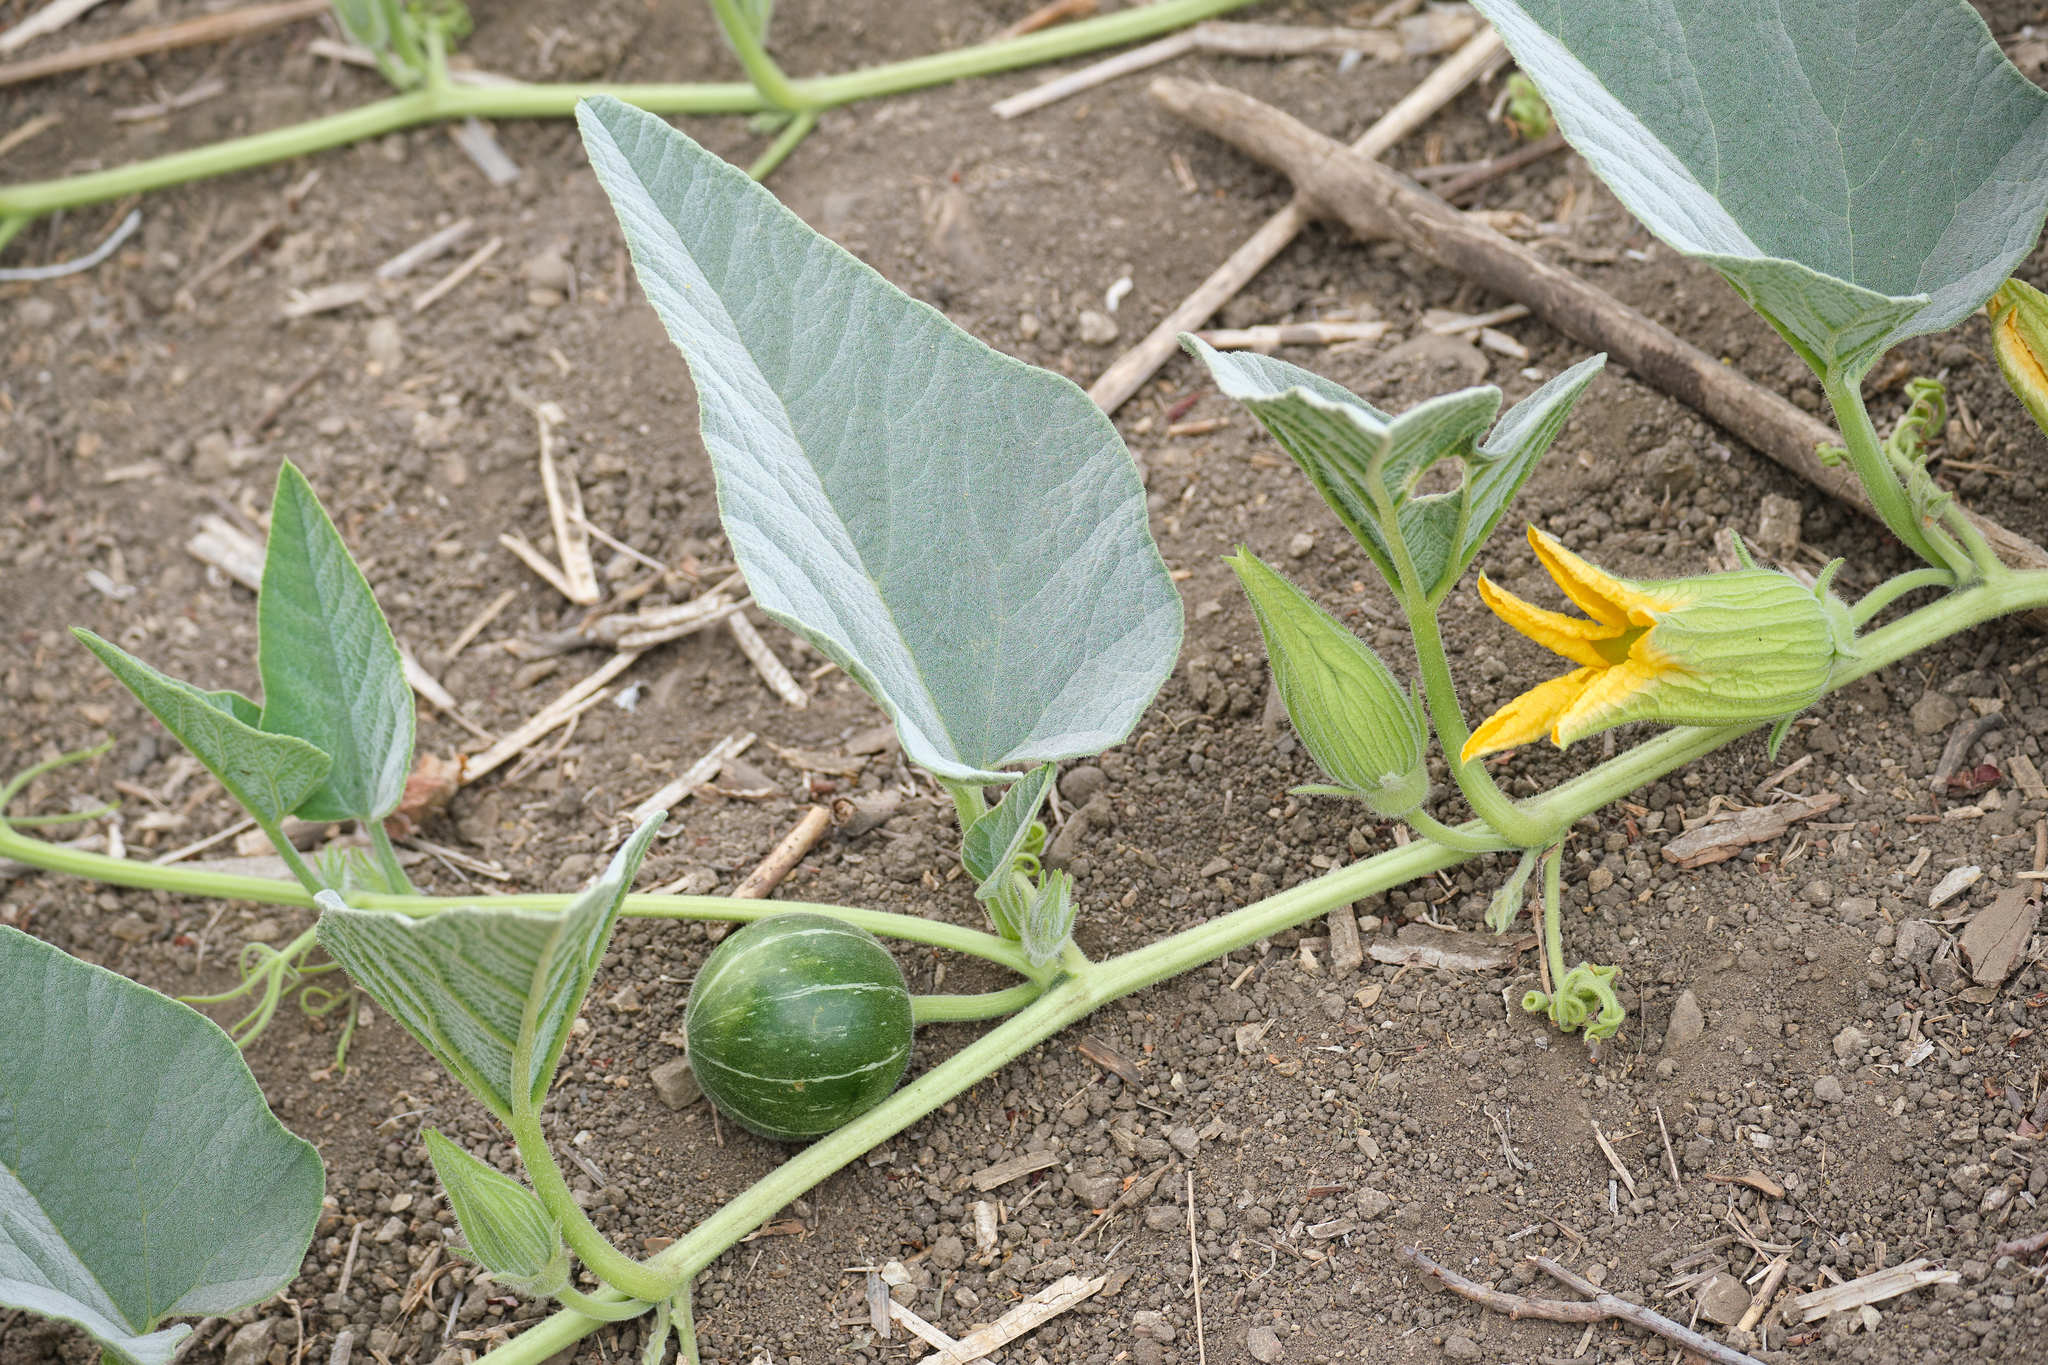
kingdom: Plantae
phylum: Tracheophyta
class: Magnoliopsida
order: Cucurbitales
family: Cucurbitaceae
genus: Cucurbita
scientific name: Cucurbita foetidissima
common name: Buffalo gourd
